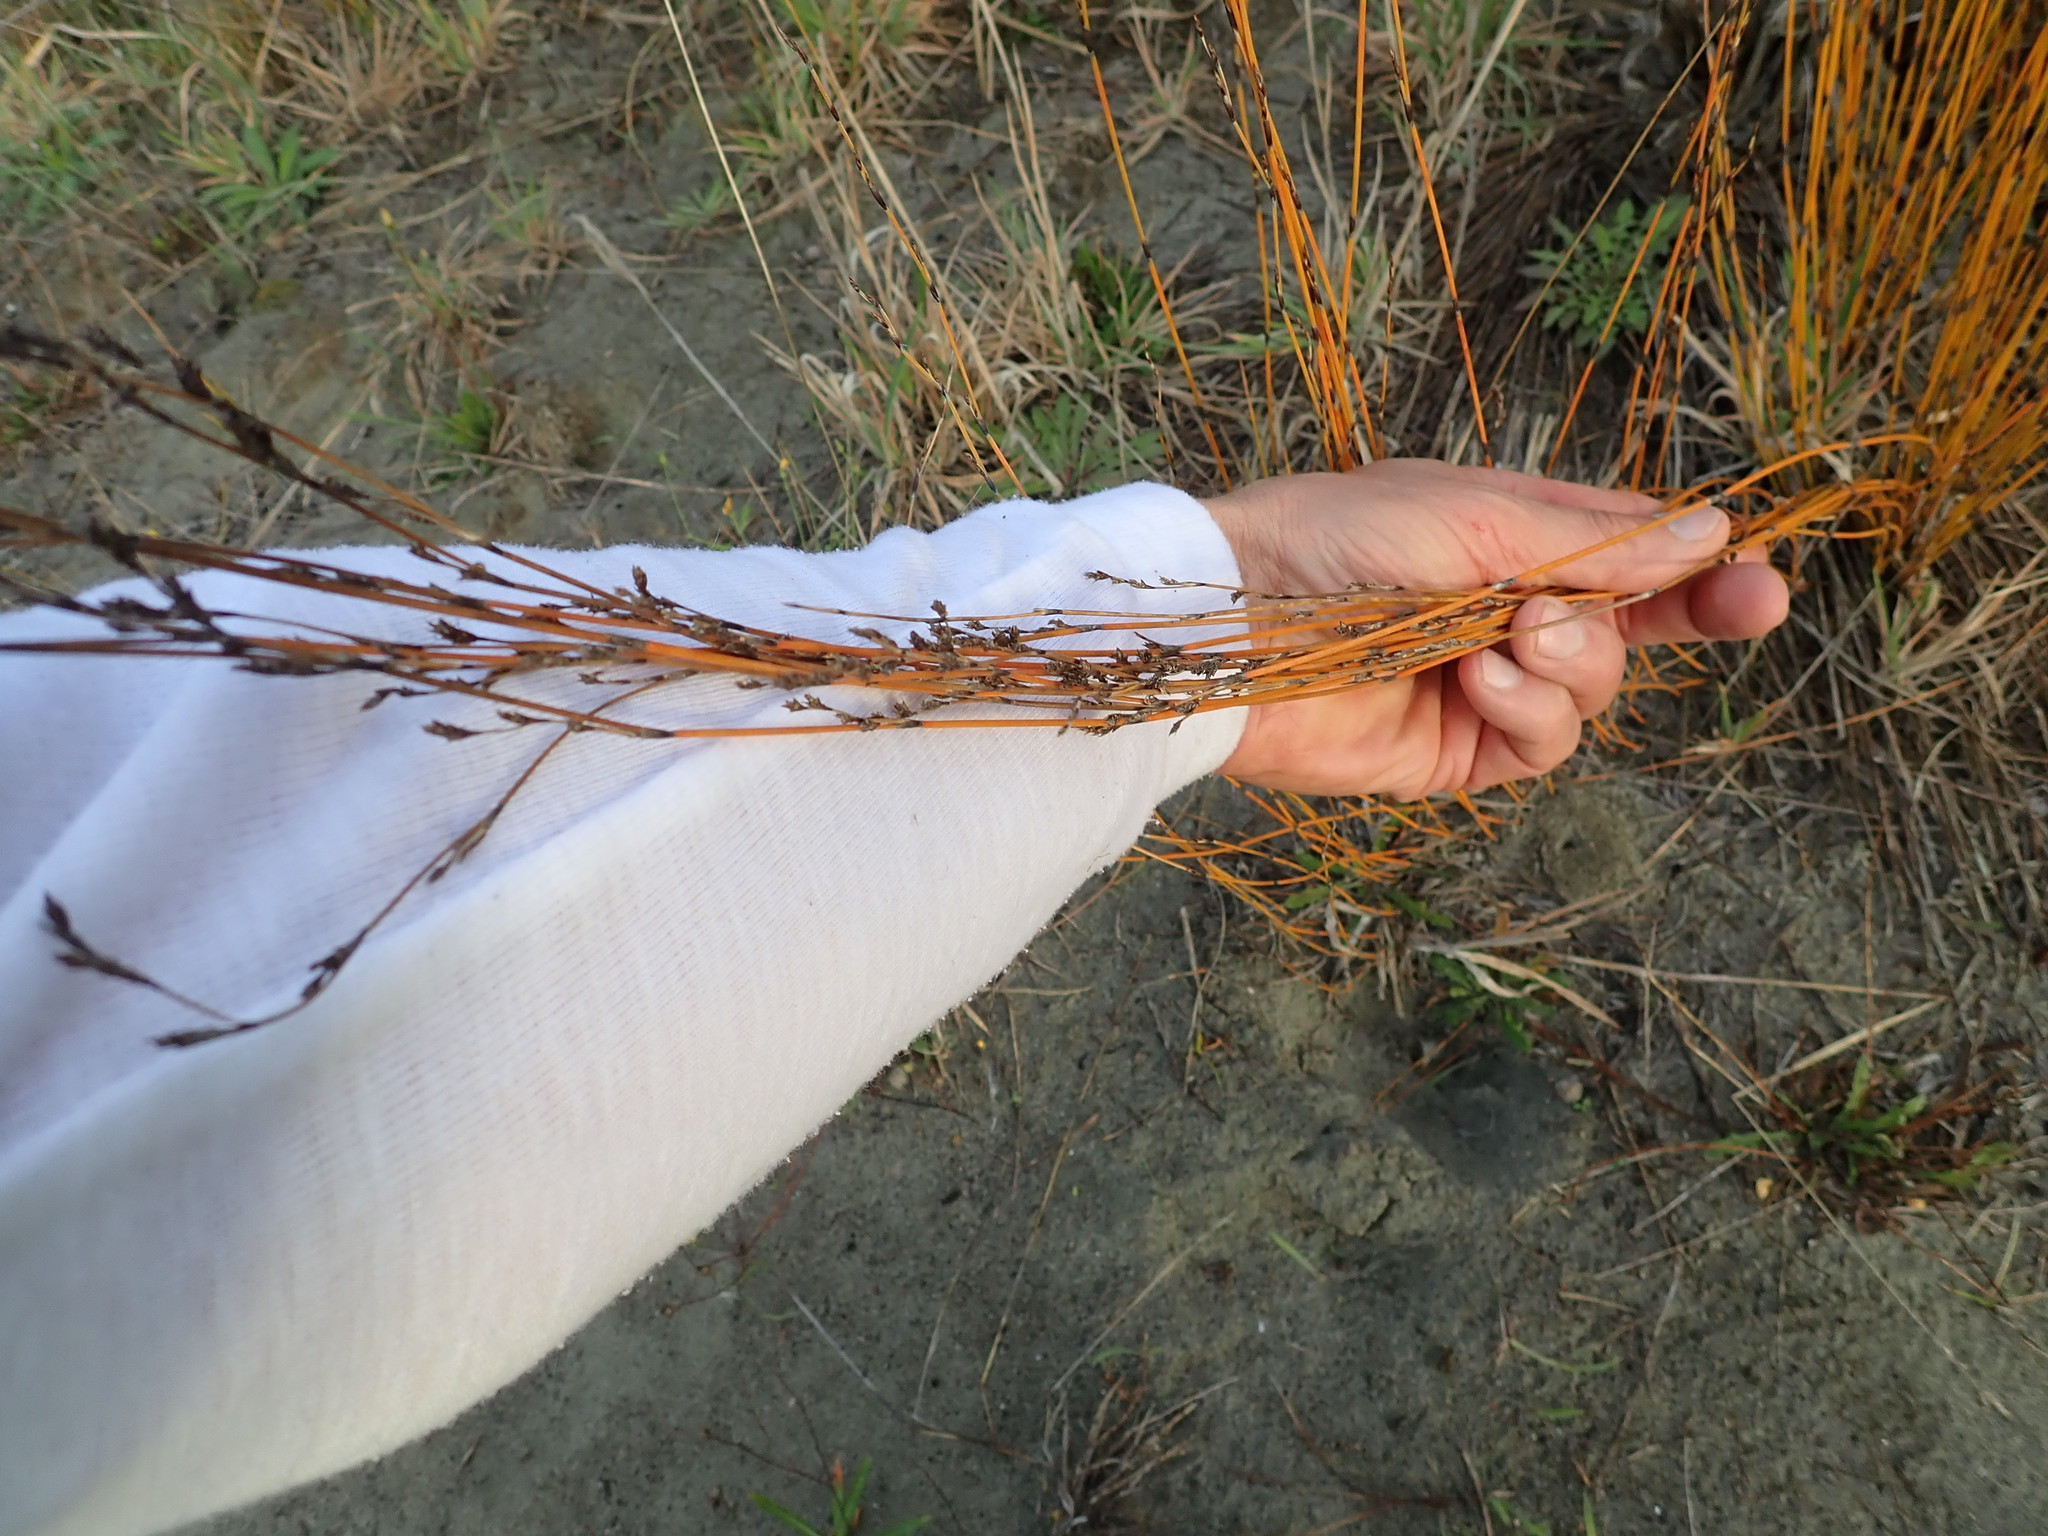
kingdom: Plantae
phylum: Tracheophyta
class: Liliopsida
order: Poales
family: Restionaceae
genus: Apodasmia
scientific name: Apodasmia similis
